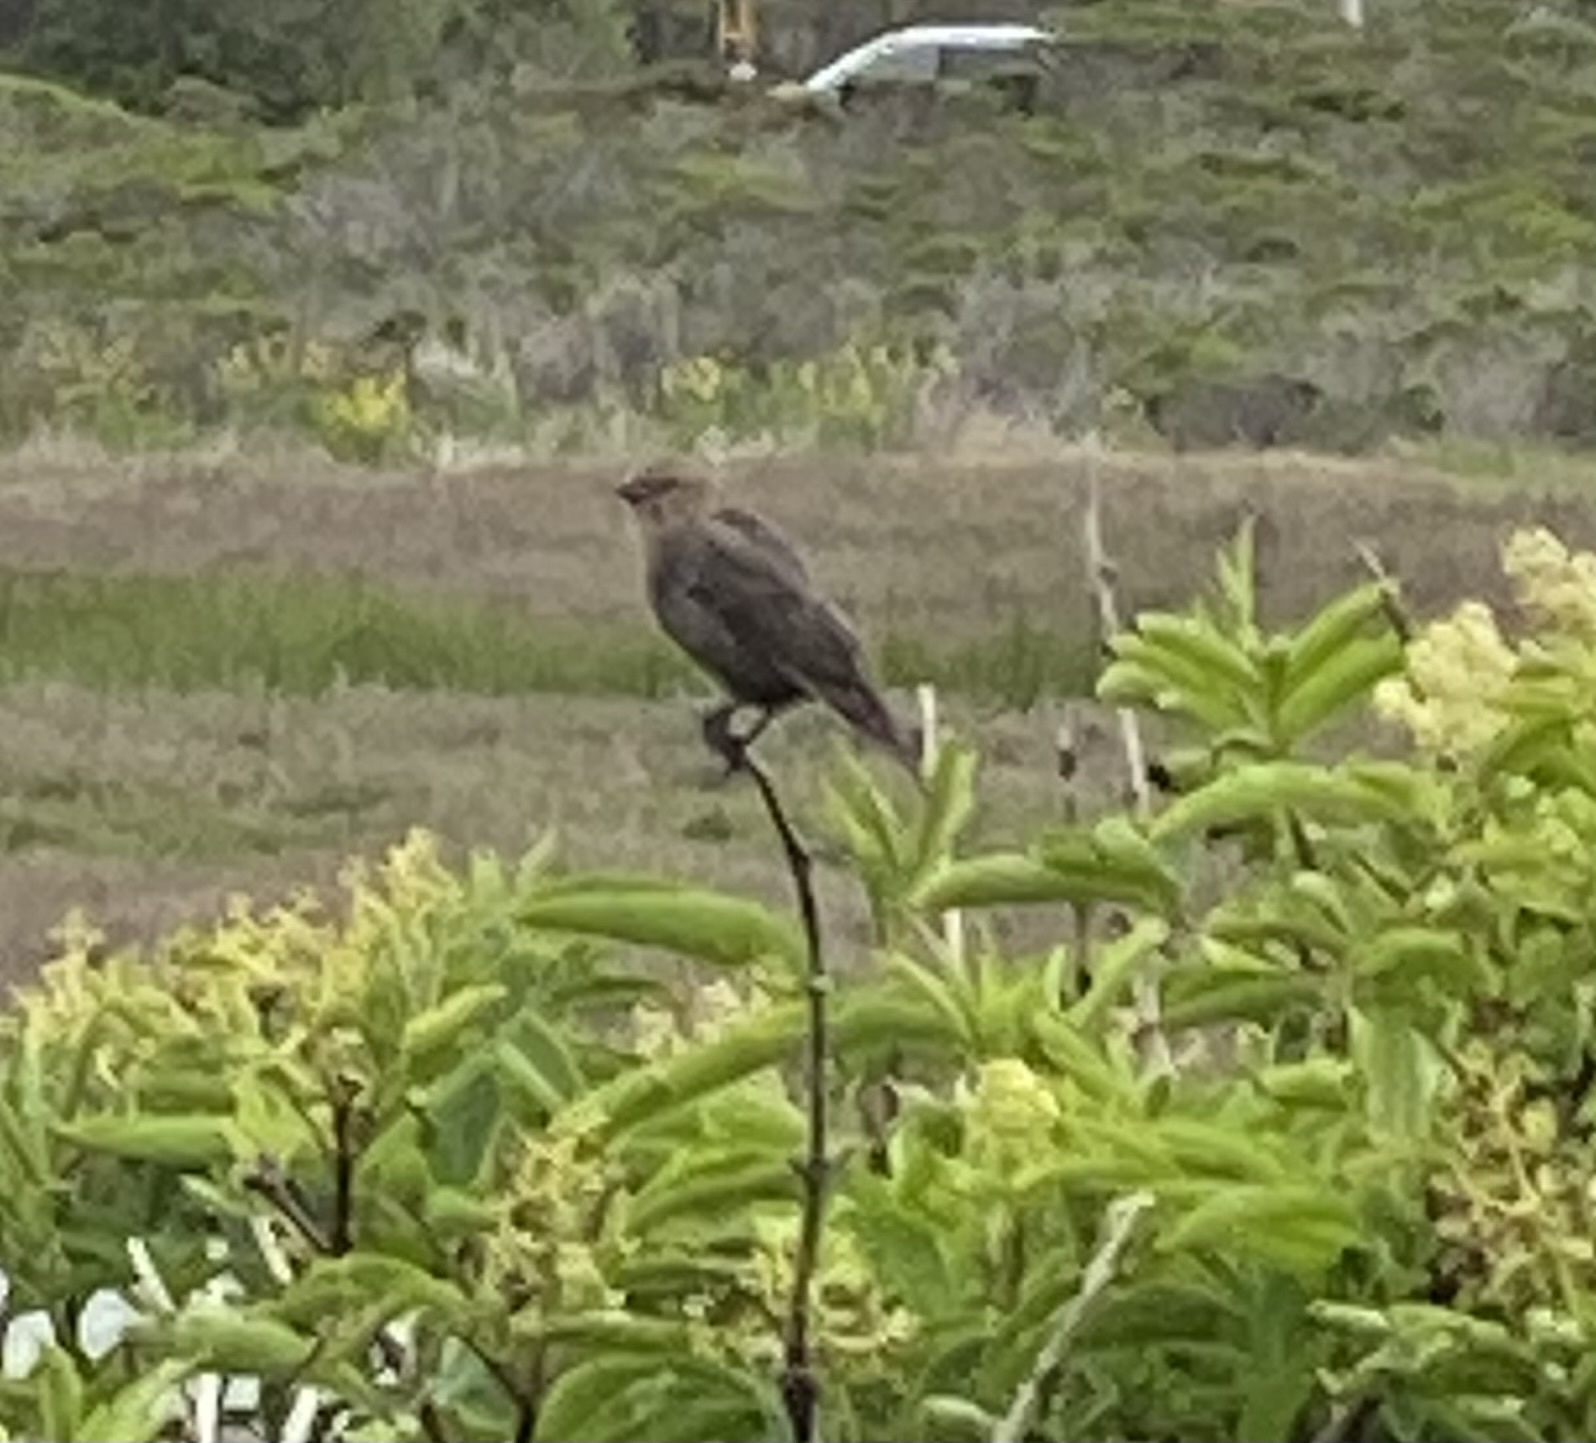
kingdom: Animalia
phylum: Chordata
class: Aves
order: Passeriformes
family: Icteridae
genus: Molothrus
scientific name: Molothrus ater
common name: Brown-headed cowbird
